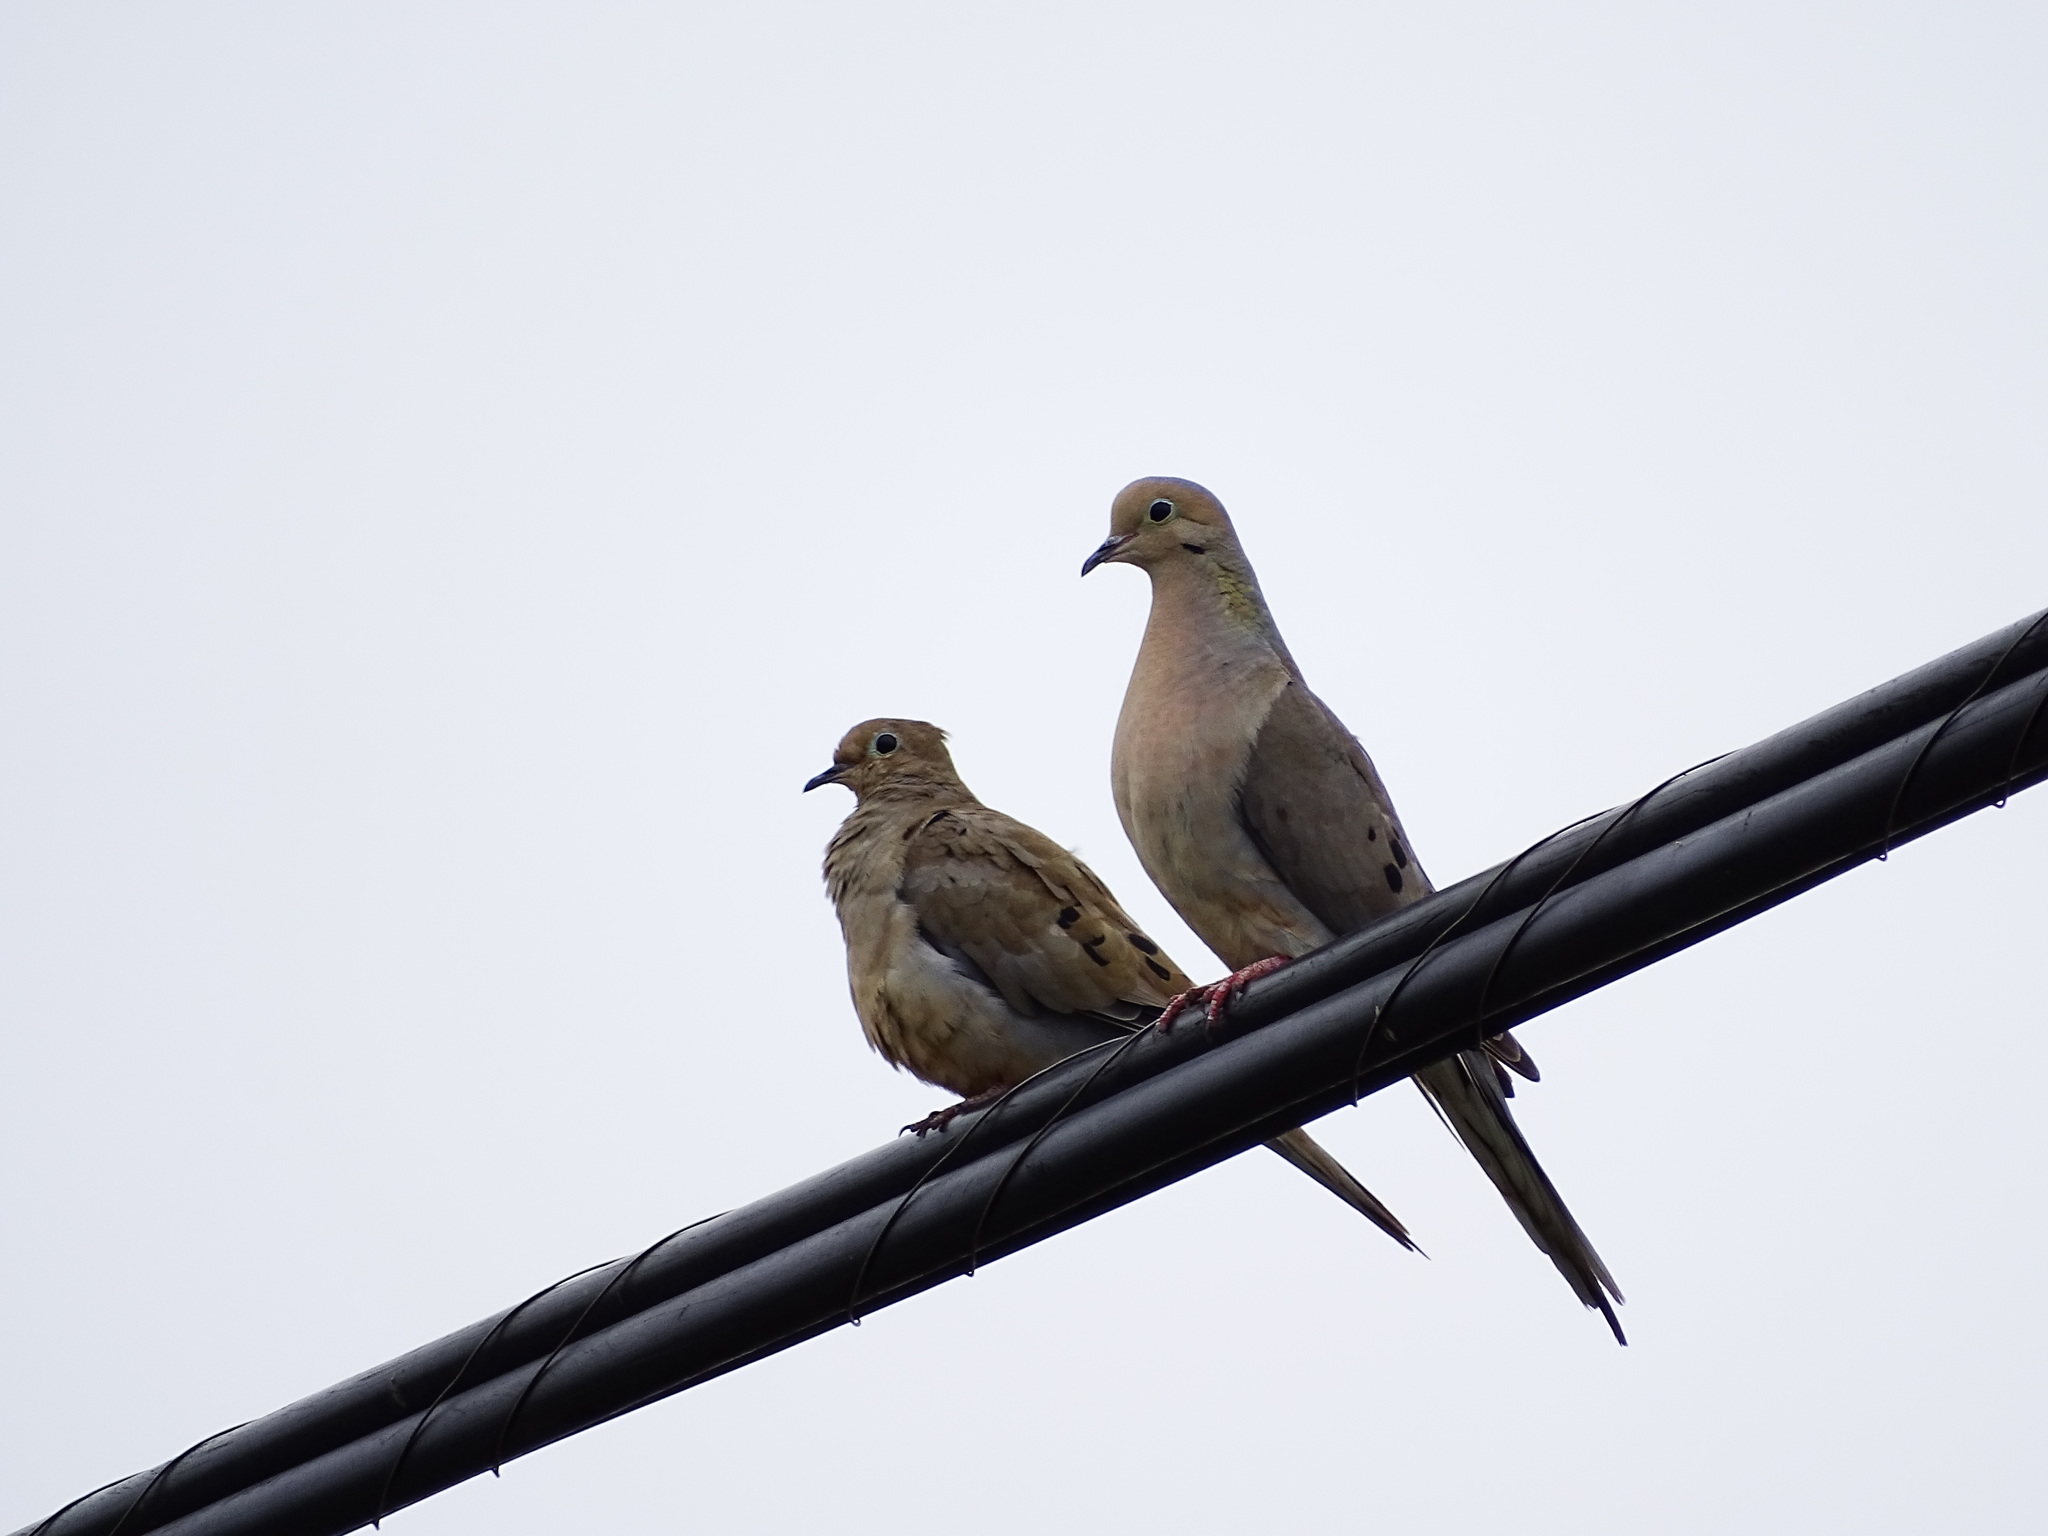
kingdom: Animalia
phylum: Chordata
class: Aves
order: Columbiformes
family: Columbidae
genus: Zenaida
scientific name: Zenaida macroura
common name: Mourning dove
